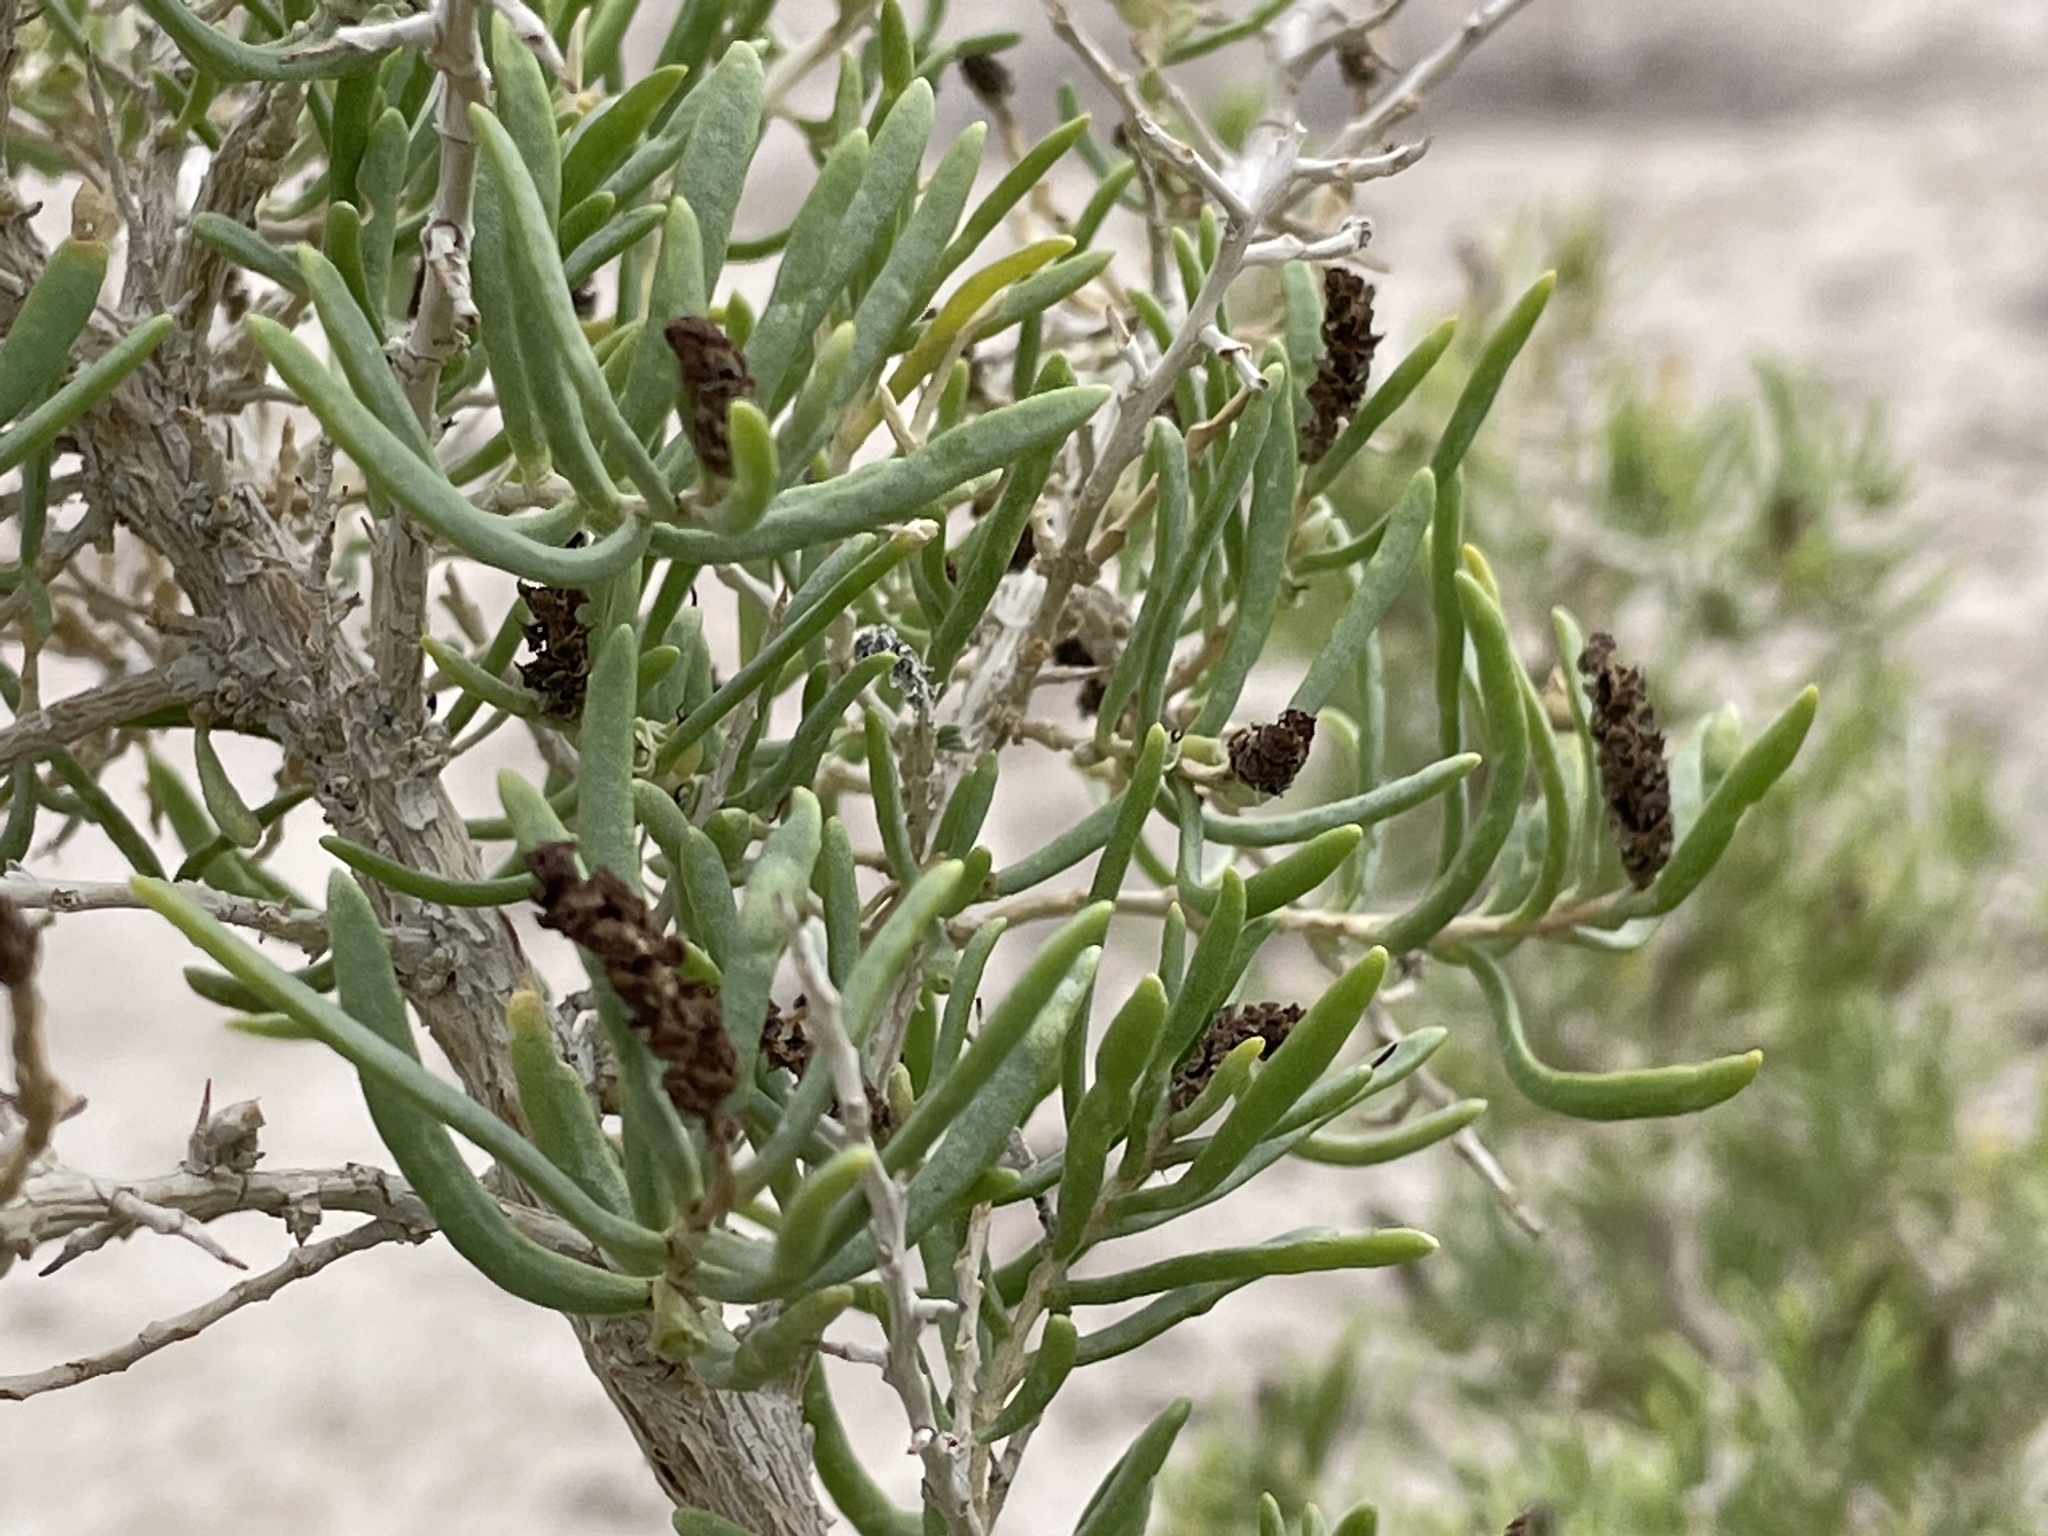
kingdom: Plantae
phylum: Tracheophyta
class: Magnoliopsida
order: Caryophyllales
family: Sarcobataceae
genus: Sarcobatus
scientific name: Sarcobatus vermiculatus
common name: Greasewood
